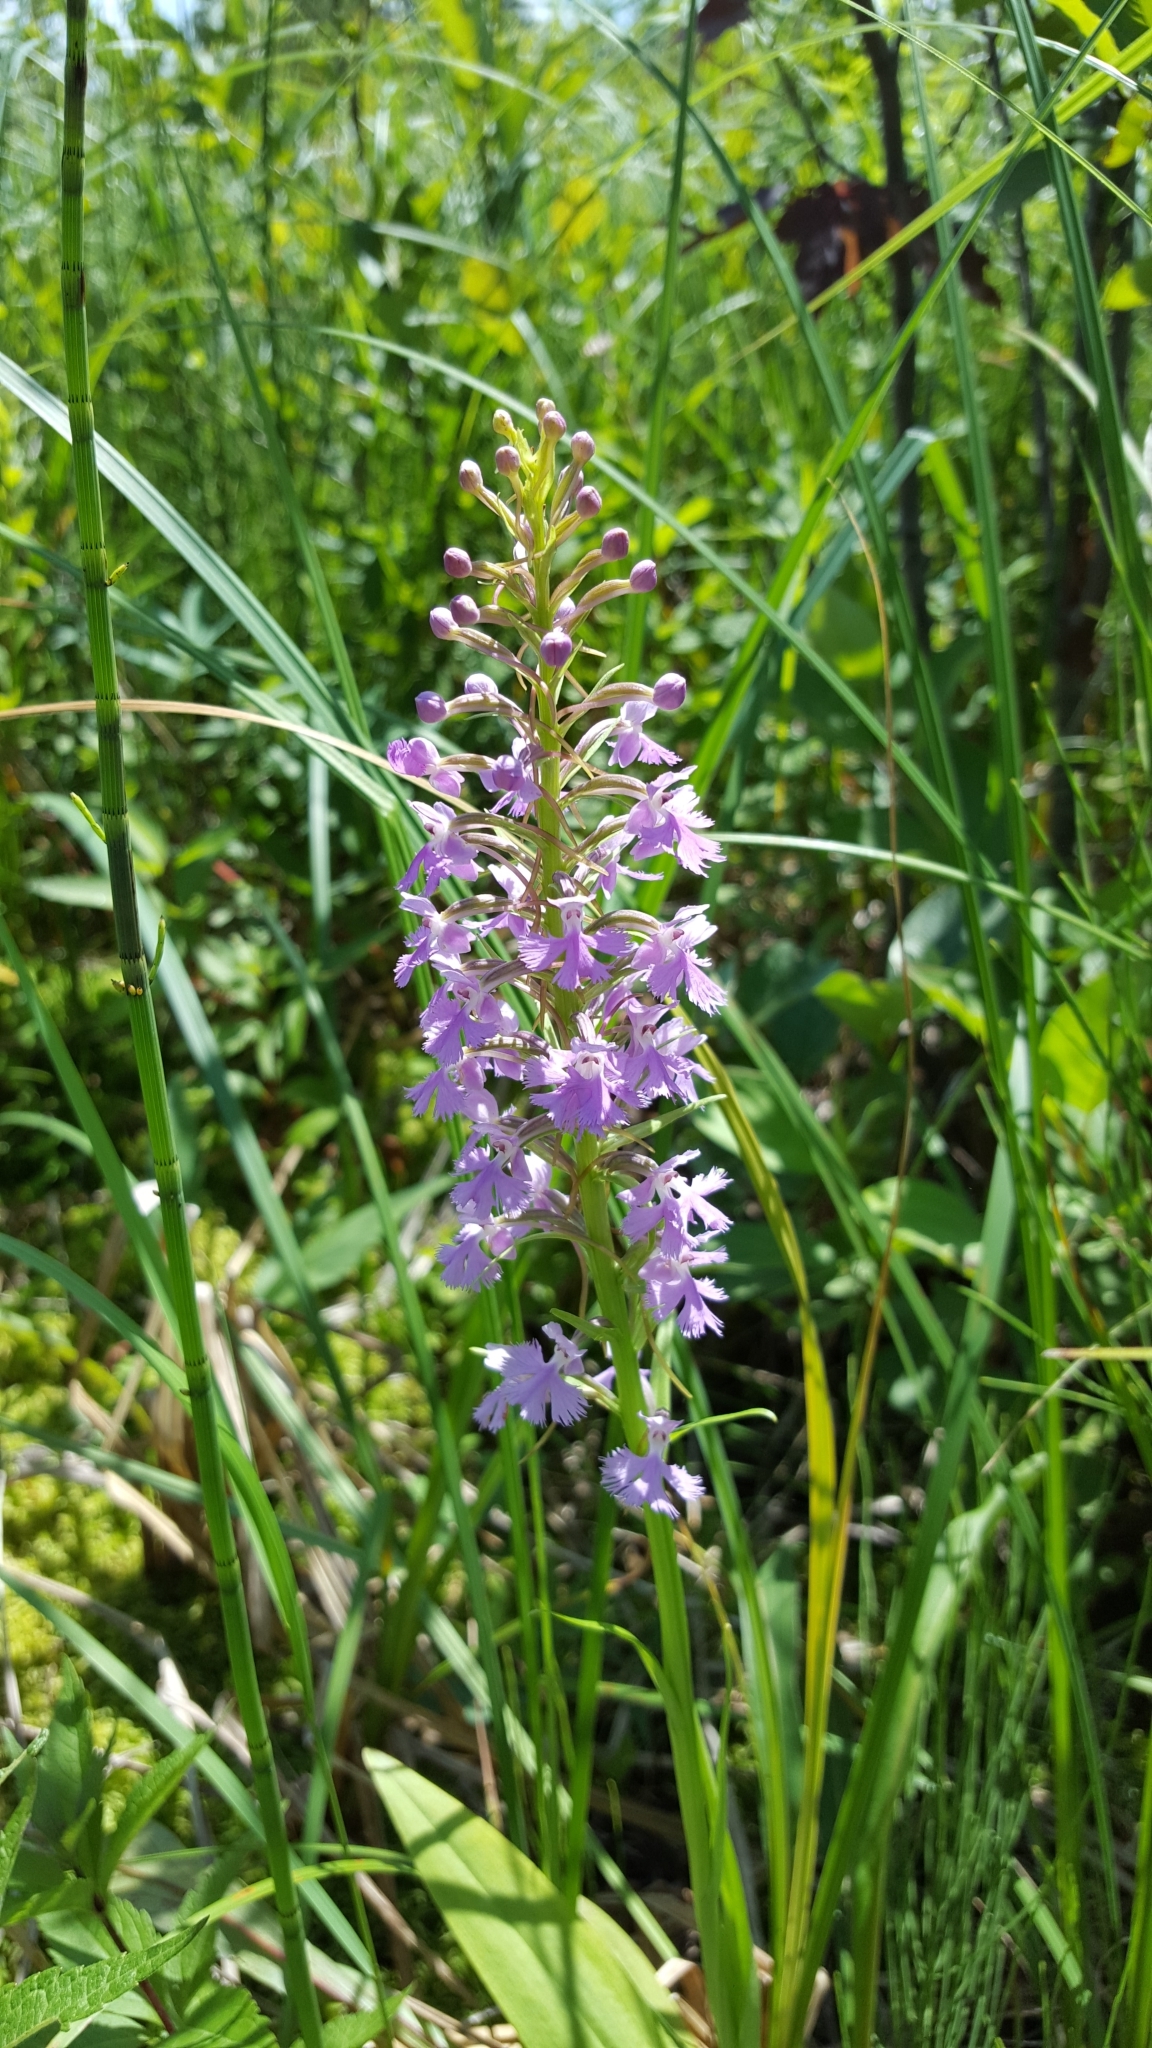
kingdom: Plantae
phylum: Tracheophyta
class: Liliopsida
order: Asparagales
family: Orchidaceae
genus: Platanthera
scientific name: Platanthera psycodes
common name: Lesser purple fringed orchid
